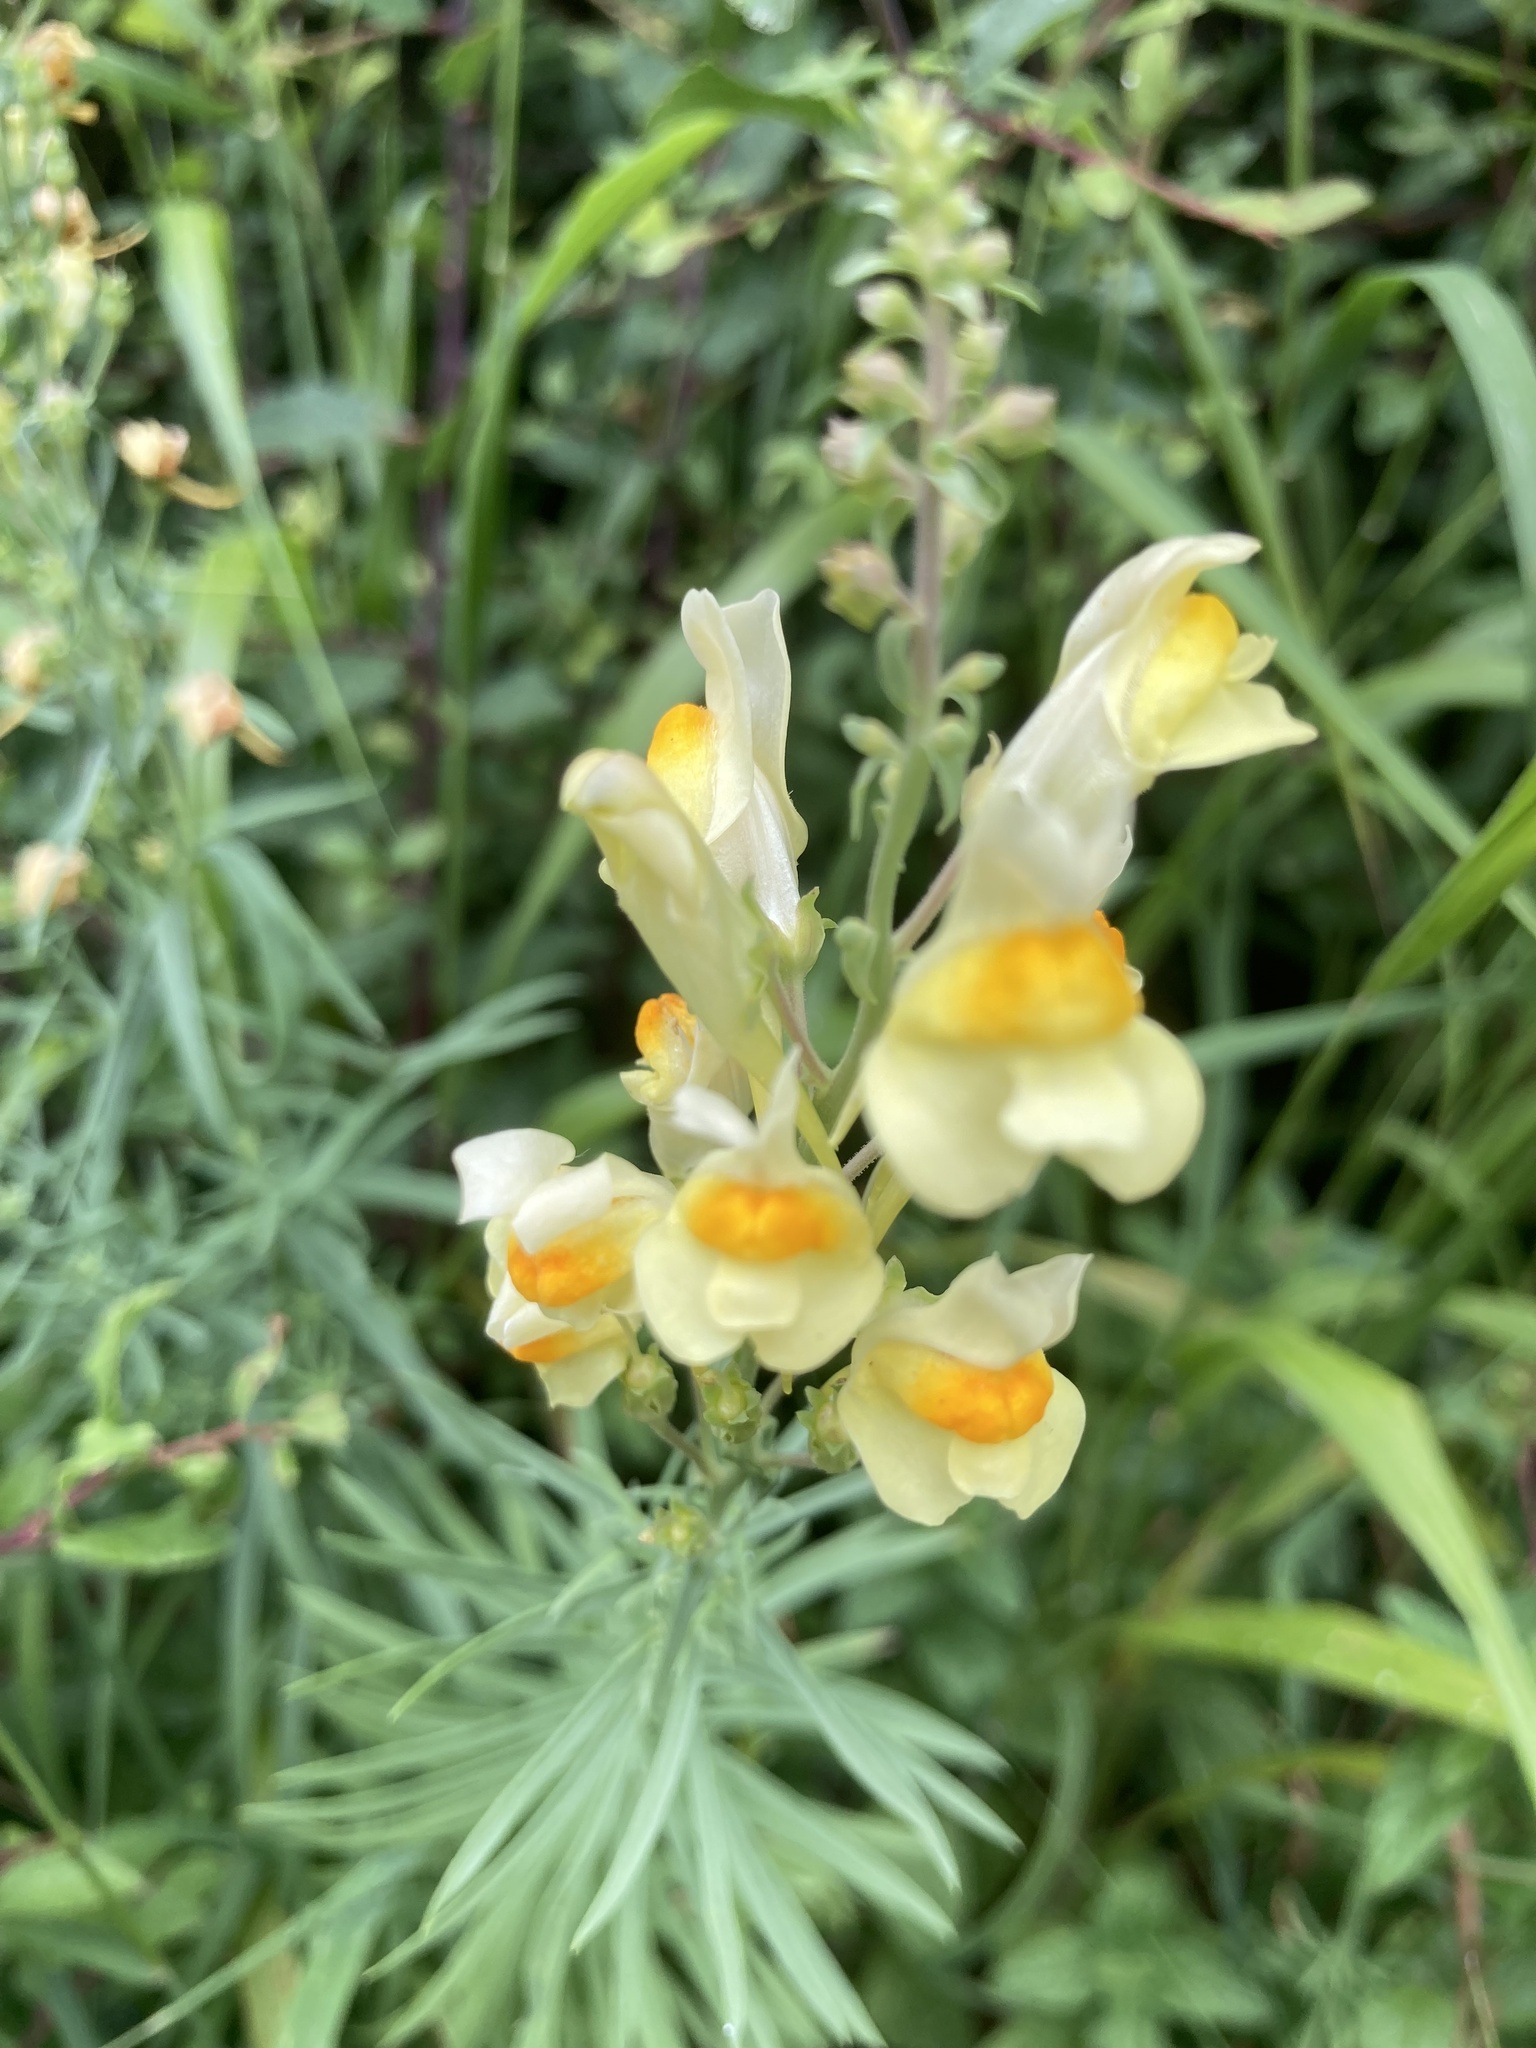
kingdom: Plantae
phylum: Tracheophyta
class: Magnoliopsida
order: Lamiales
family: Plantaginaceae
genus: Linaria
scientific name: Linaria vulgaris
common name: Butter and eggs
